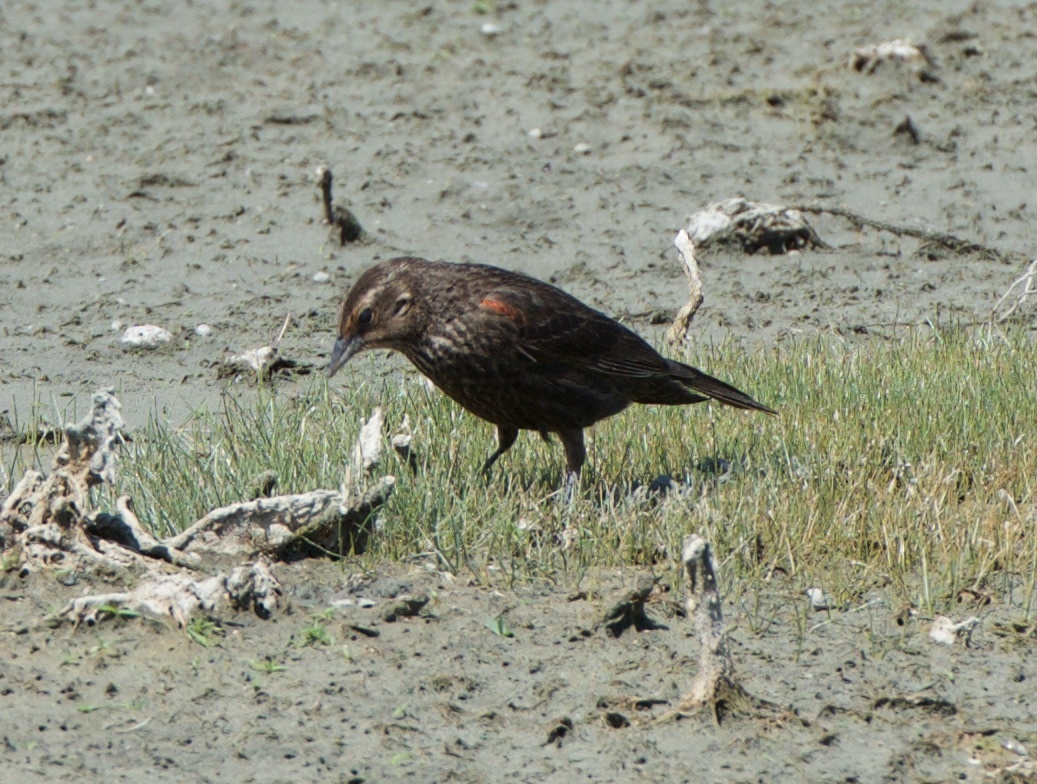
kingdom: Animalia
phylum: Chordata
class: Aves
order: Passeriformes
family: Icteridae
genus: Agelaius
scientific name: Agelaius phoeniceus
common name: Red-winged blackbird
